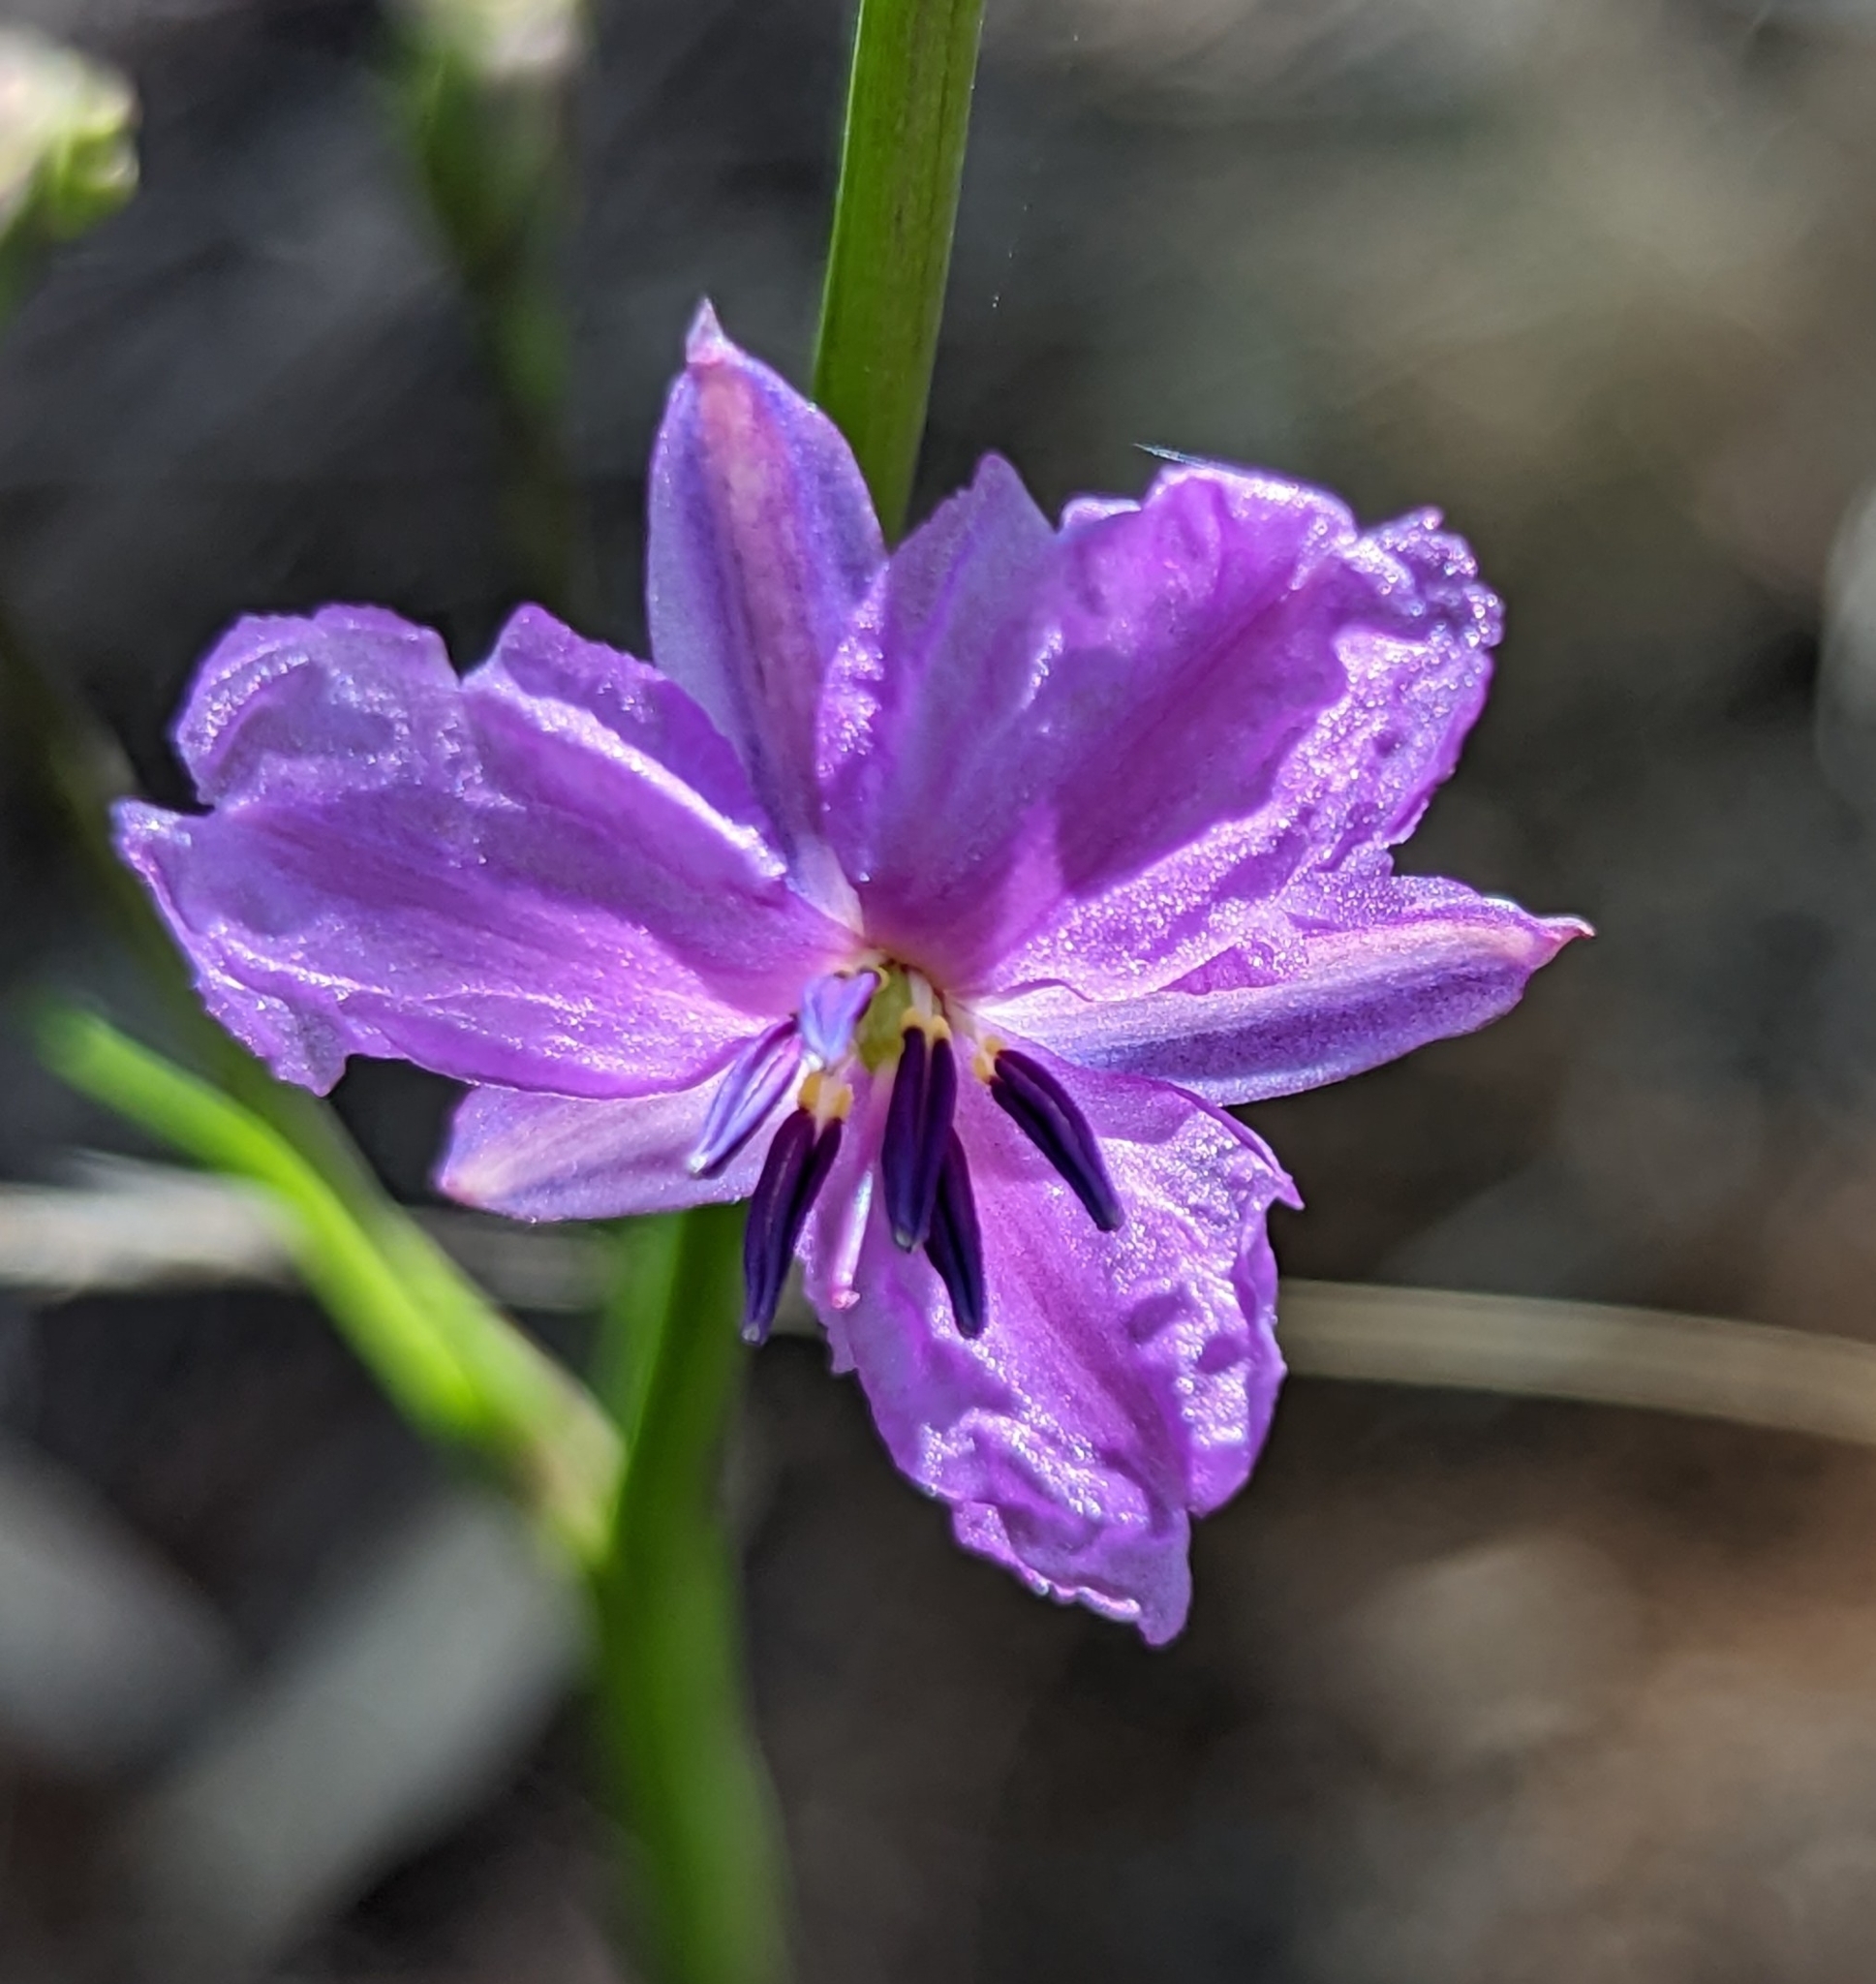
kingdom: Plantae
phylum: Tracheophyta
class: Liliopsida
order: Asparagales
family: Asparagaceae
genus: Arthropodium
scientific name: Arthropodium strictum
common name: Chocolate-lily
